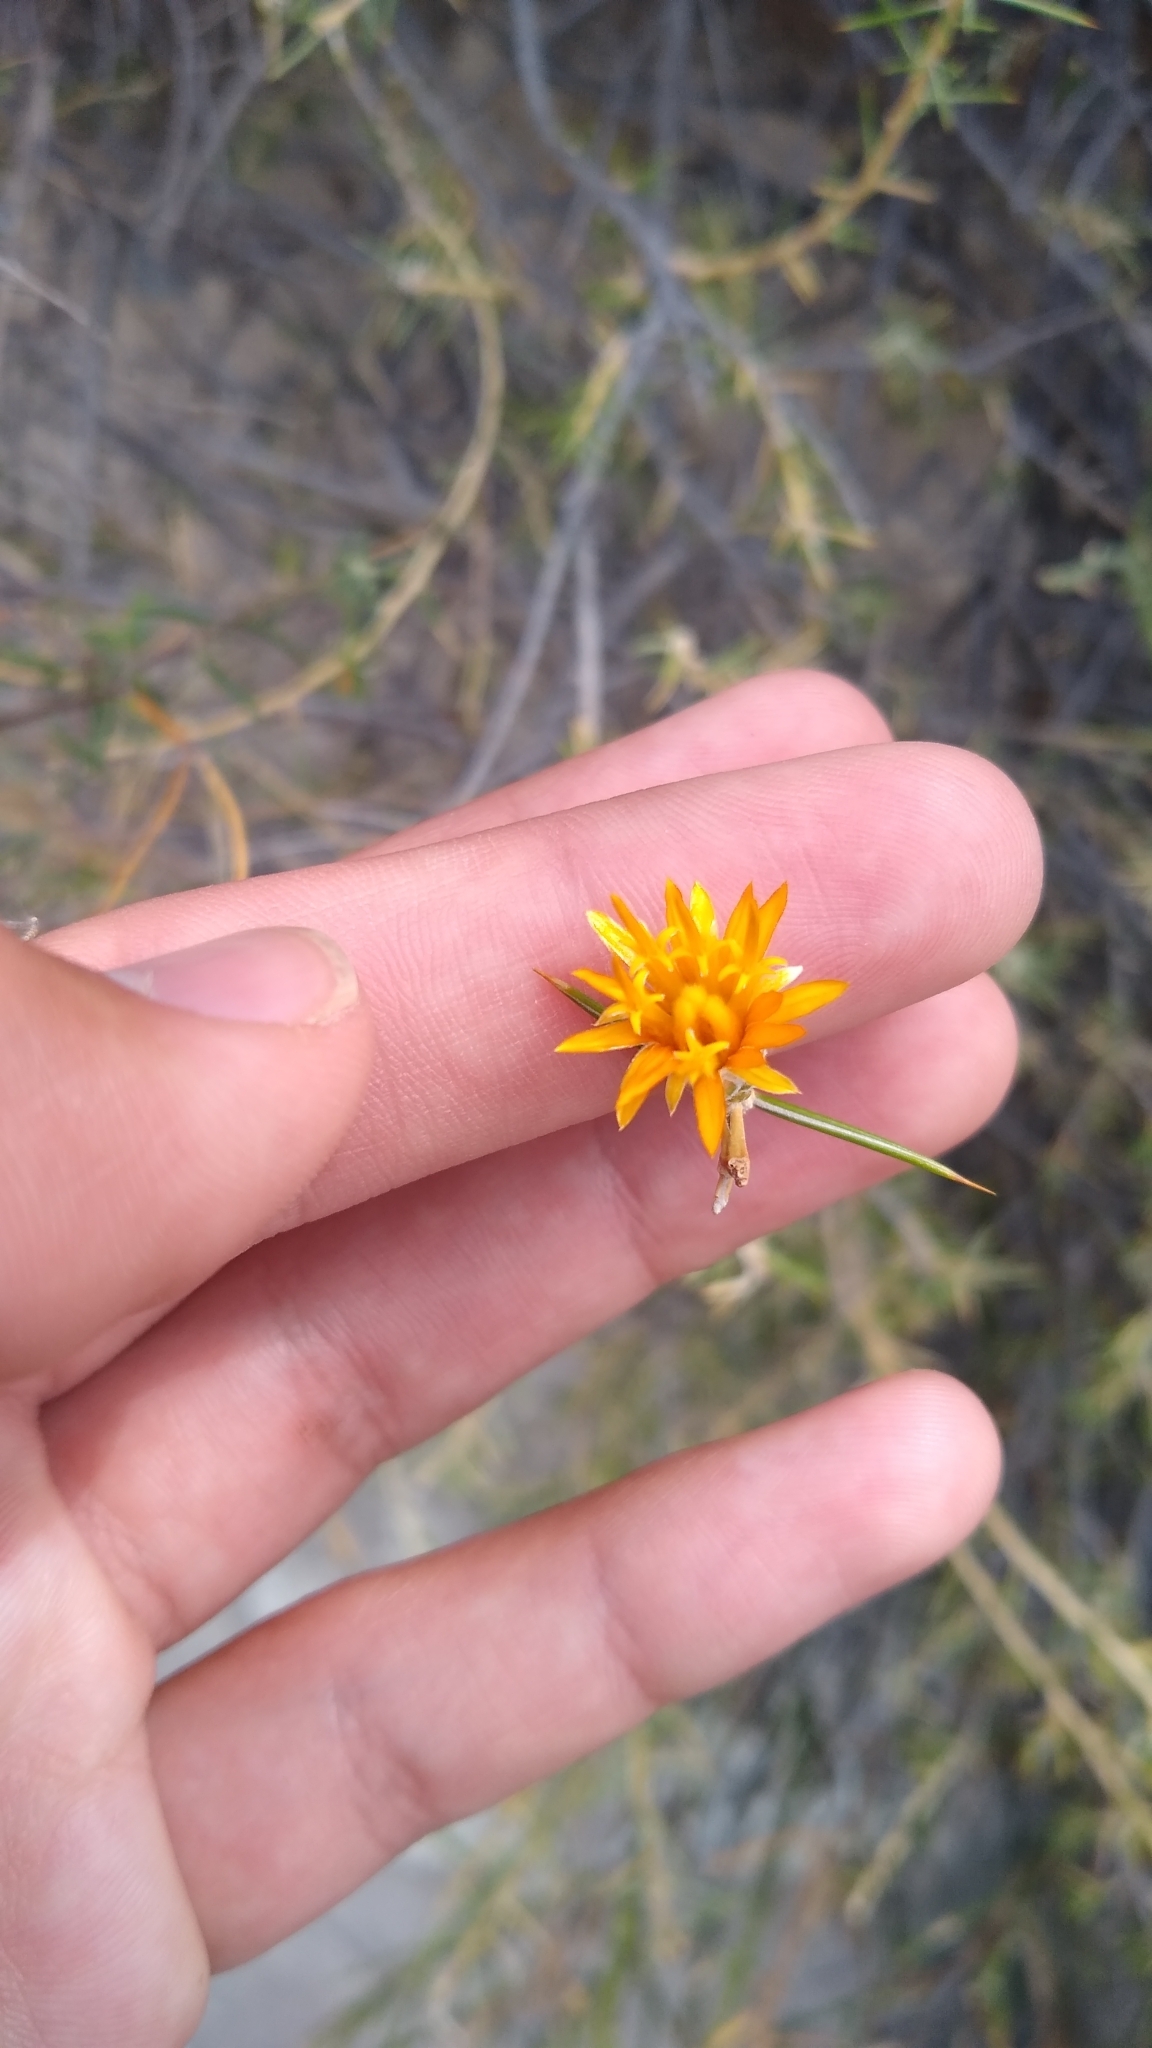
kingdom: Plantae
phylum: Tracheophyta
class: Magnoliopsida
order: Asterales
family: Asteraceae
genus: Chuquiraga
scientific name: Chuquiraga erinacea
